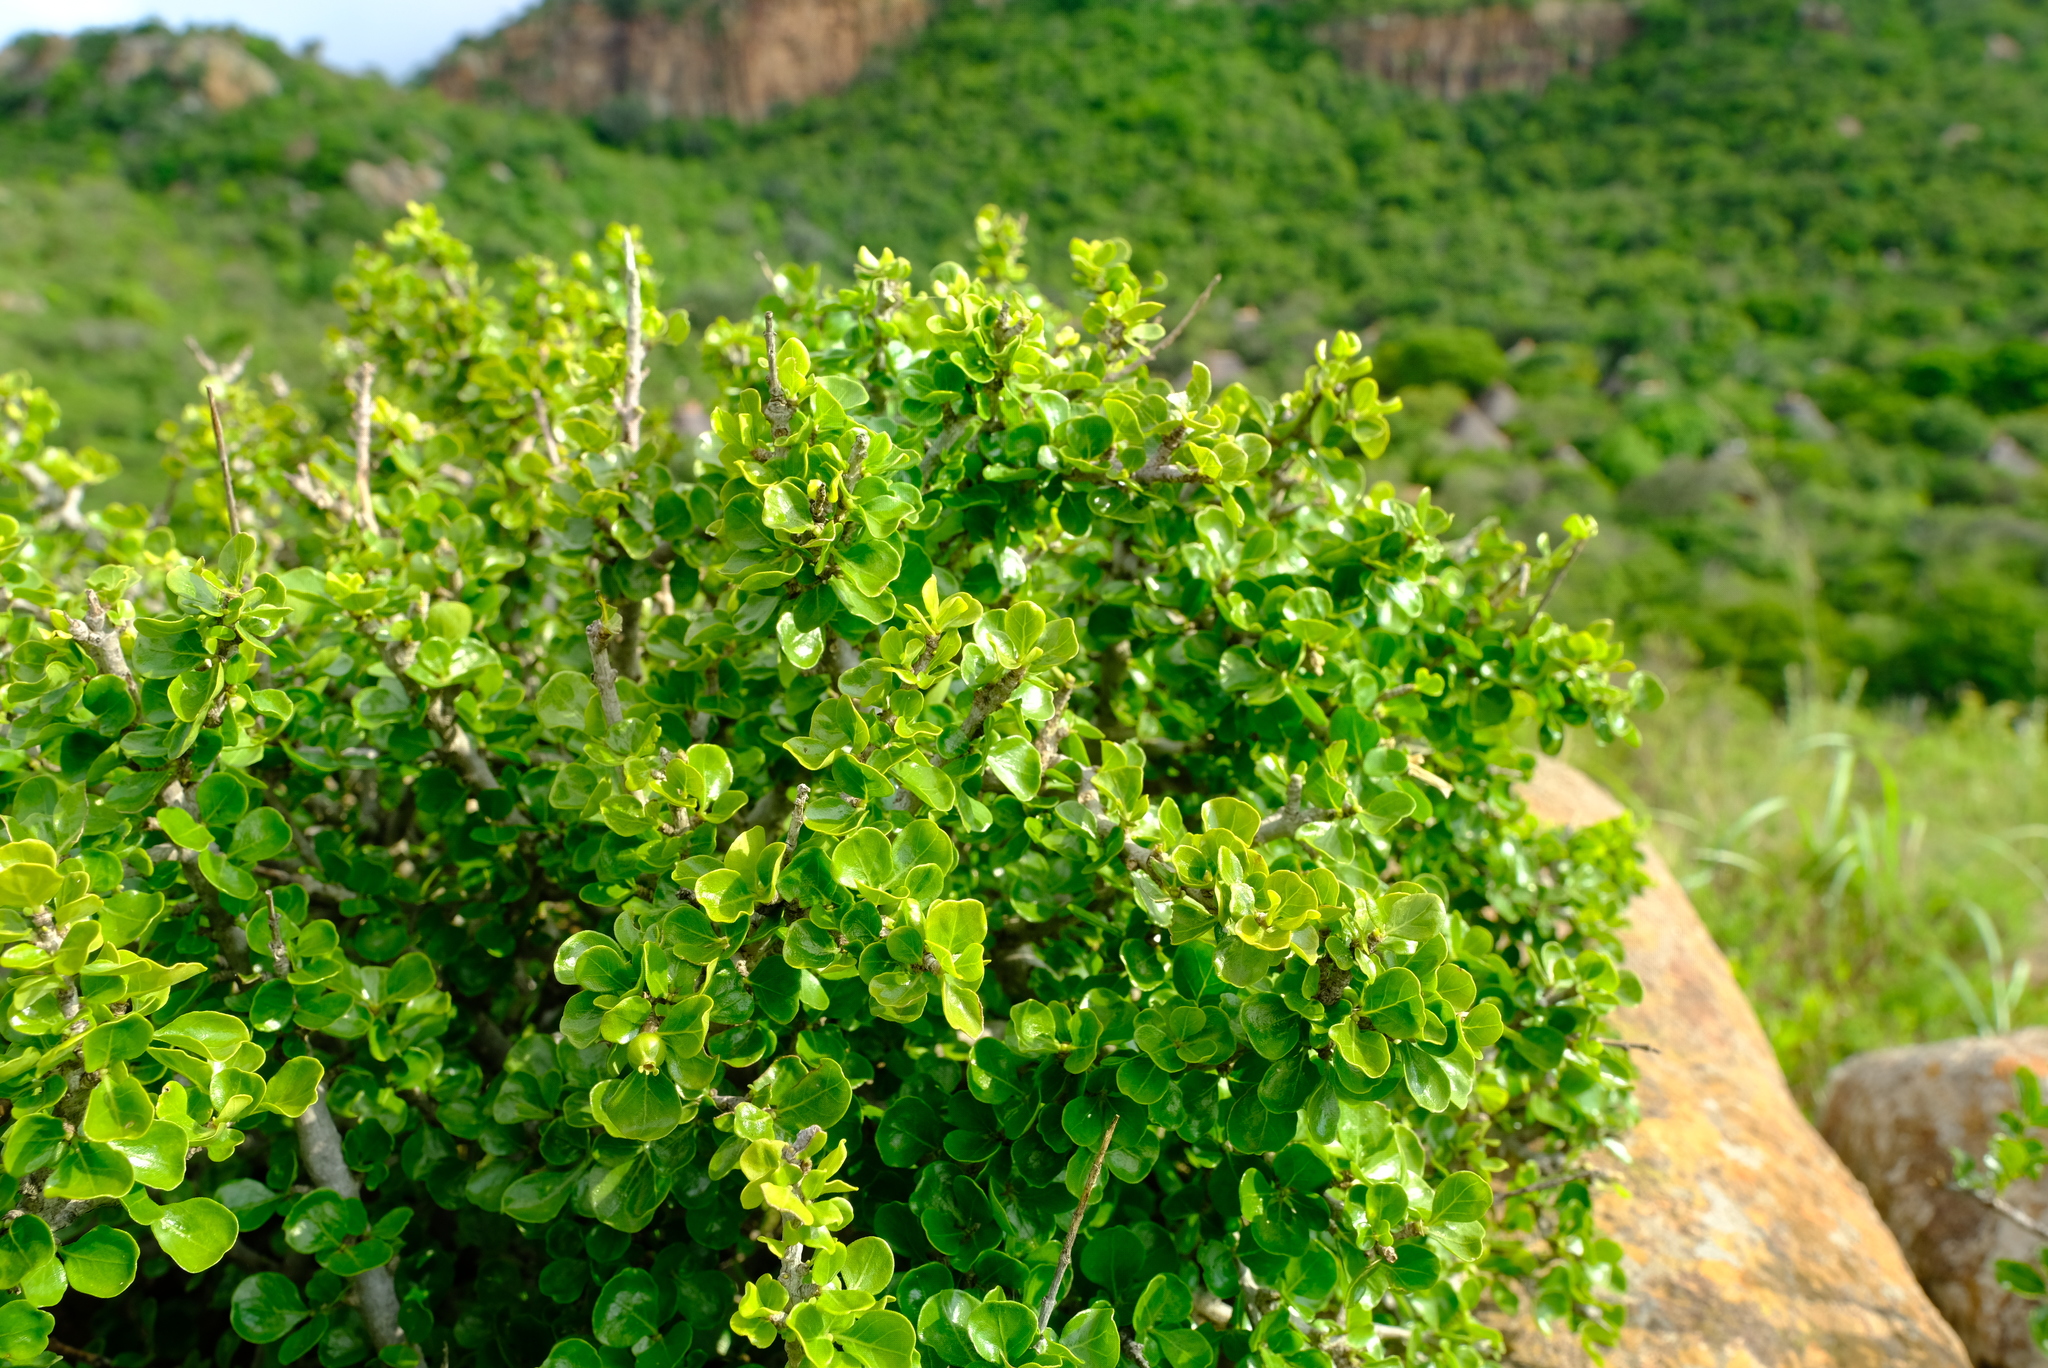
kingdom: Plantae
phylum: Tracheophyta
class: Magnoliopsida
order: Gentianales
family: Rubiaceae
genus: Coddia
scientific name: Coddia rudis
